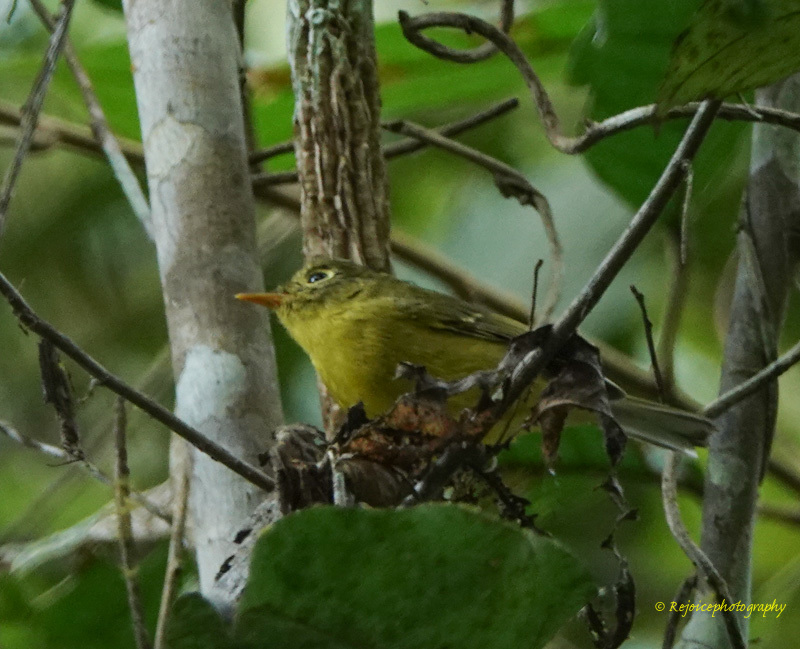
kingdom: Animalia
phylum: Chordata
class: Aves
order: Passeriformes
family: Phylloscopidae
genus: Seicercus
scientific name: Seicercus burkii
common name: Green-crowned warbler
